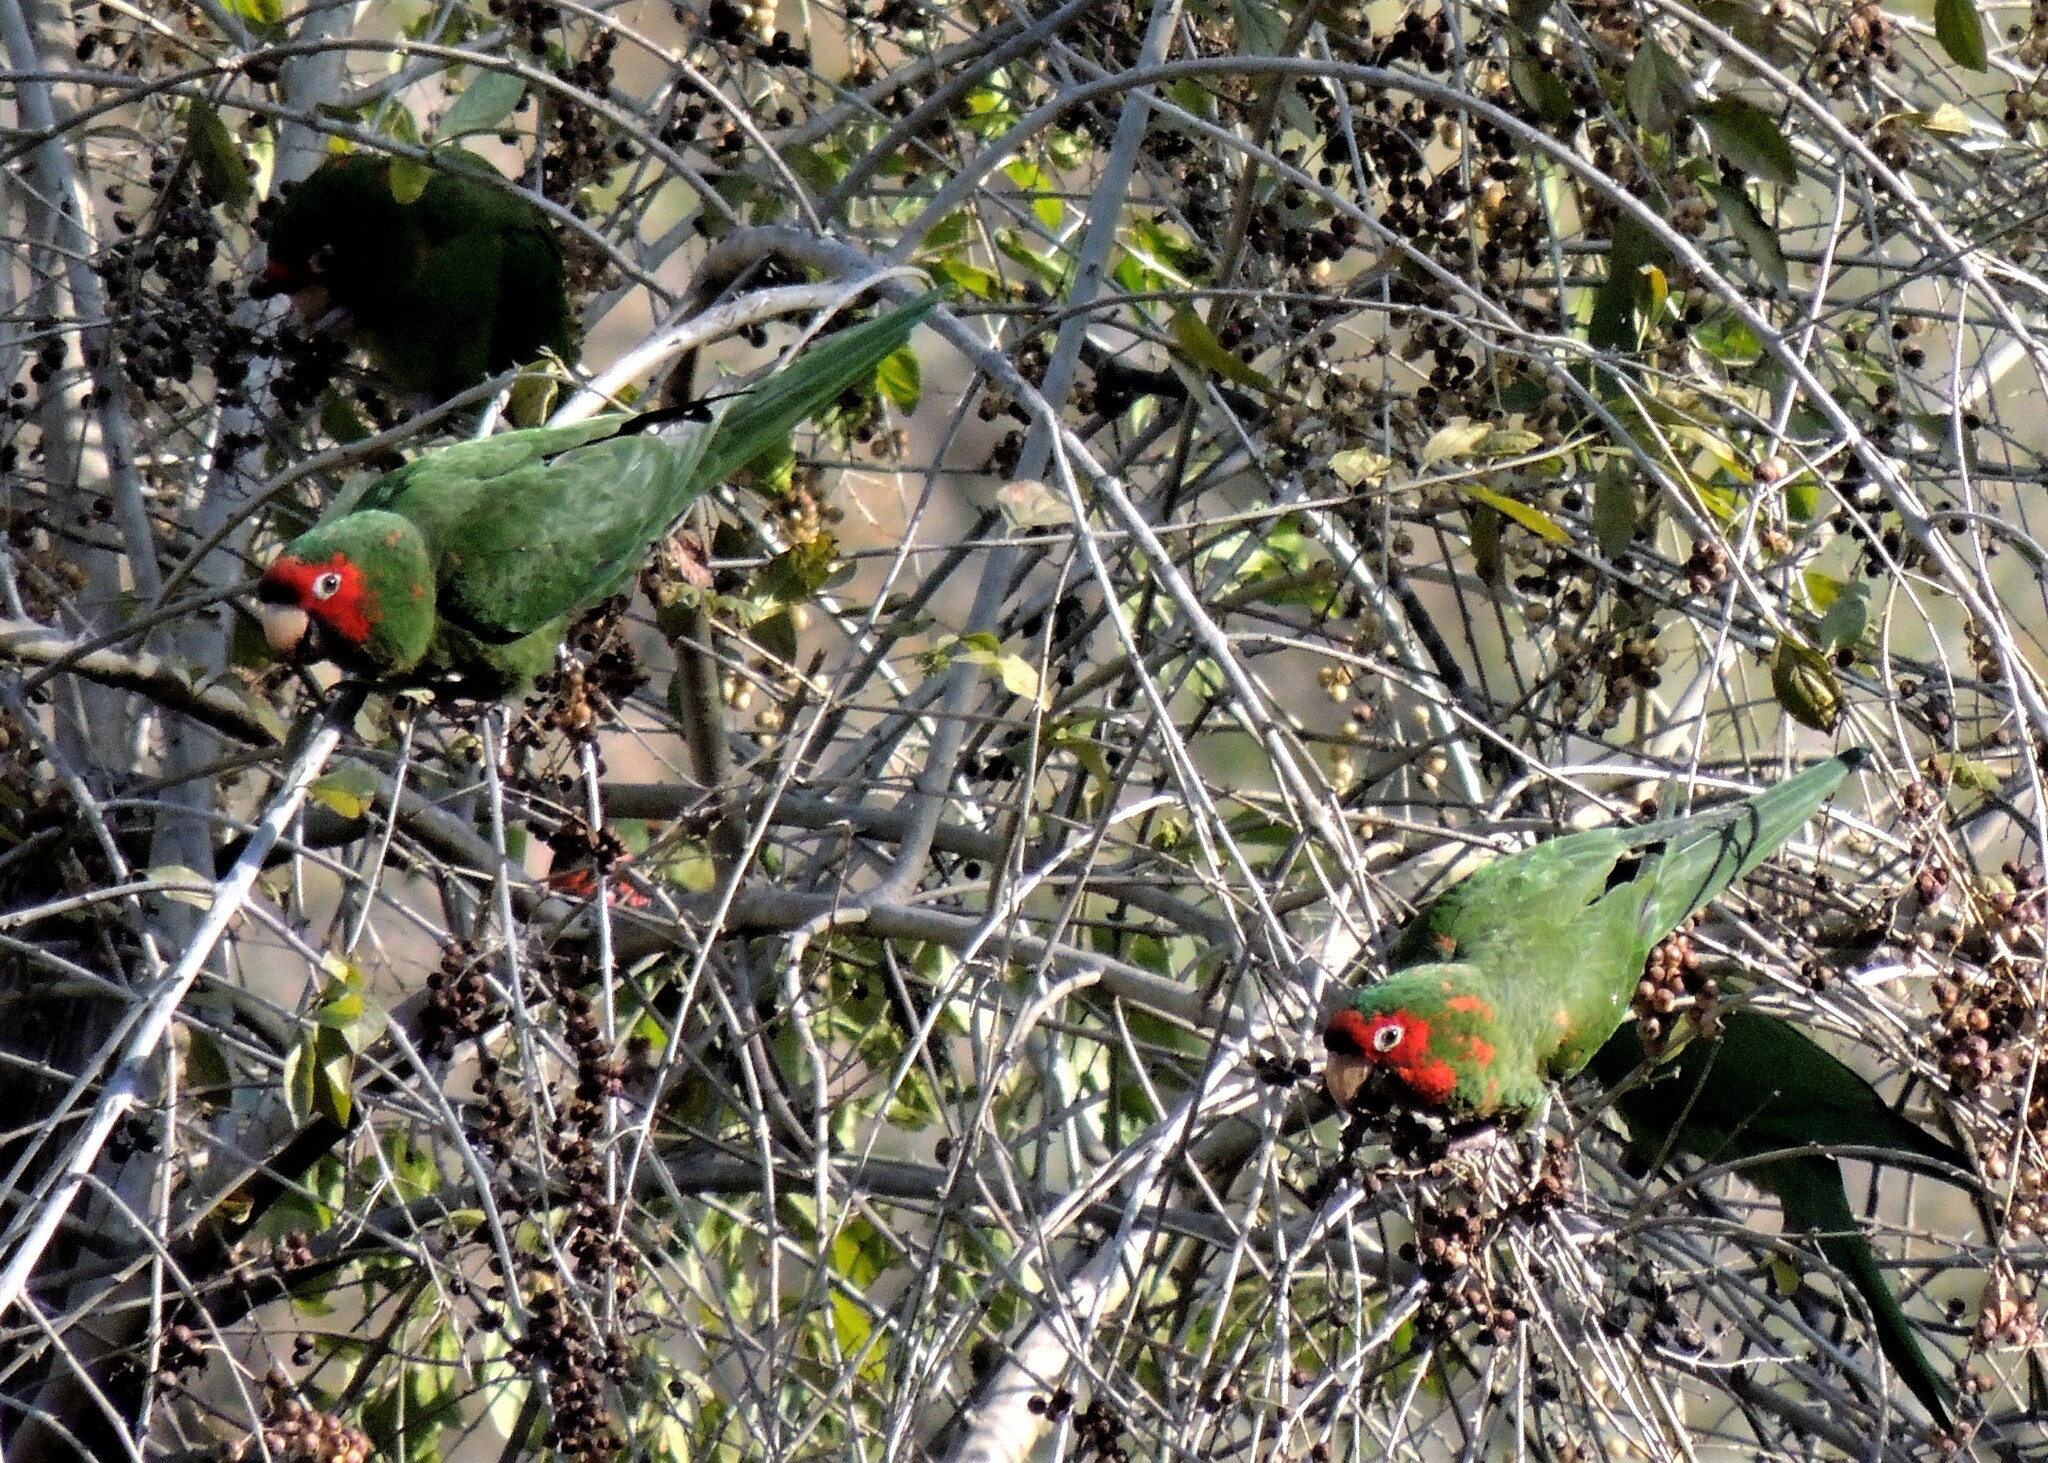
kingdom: Animalia
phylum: Chordata
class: Aves
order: Psittaciformes
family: Psittacidae
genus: Aratinga
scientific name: Aratinga mitrata
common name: Mitred parakeet
